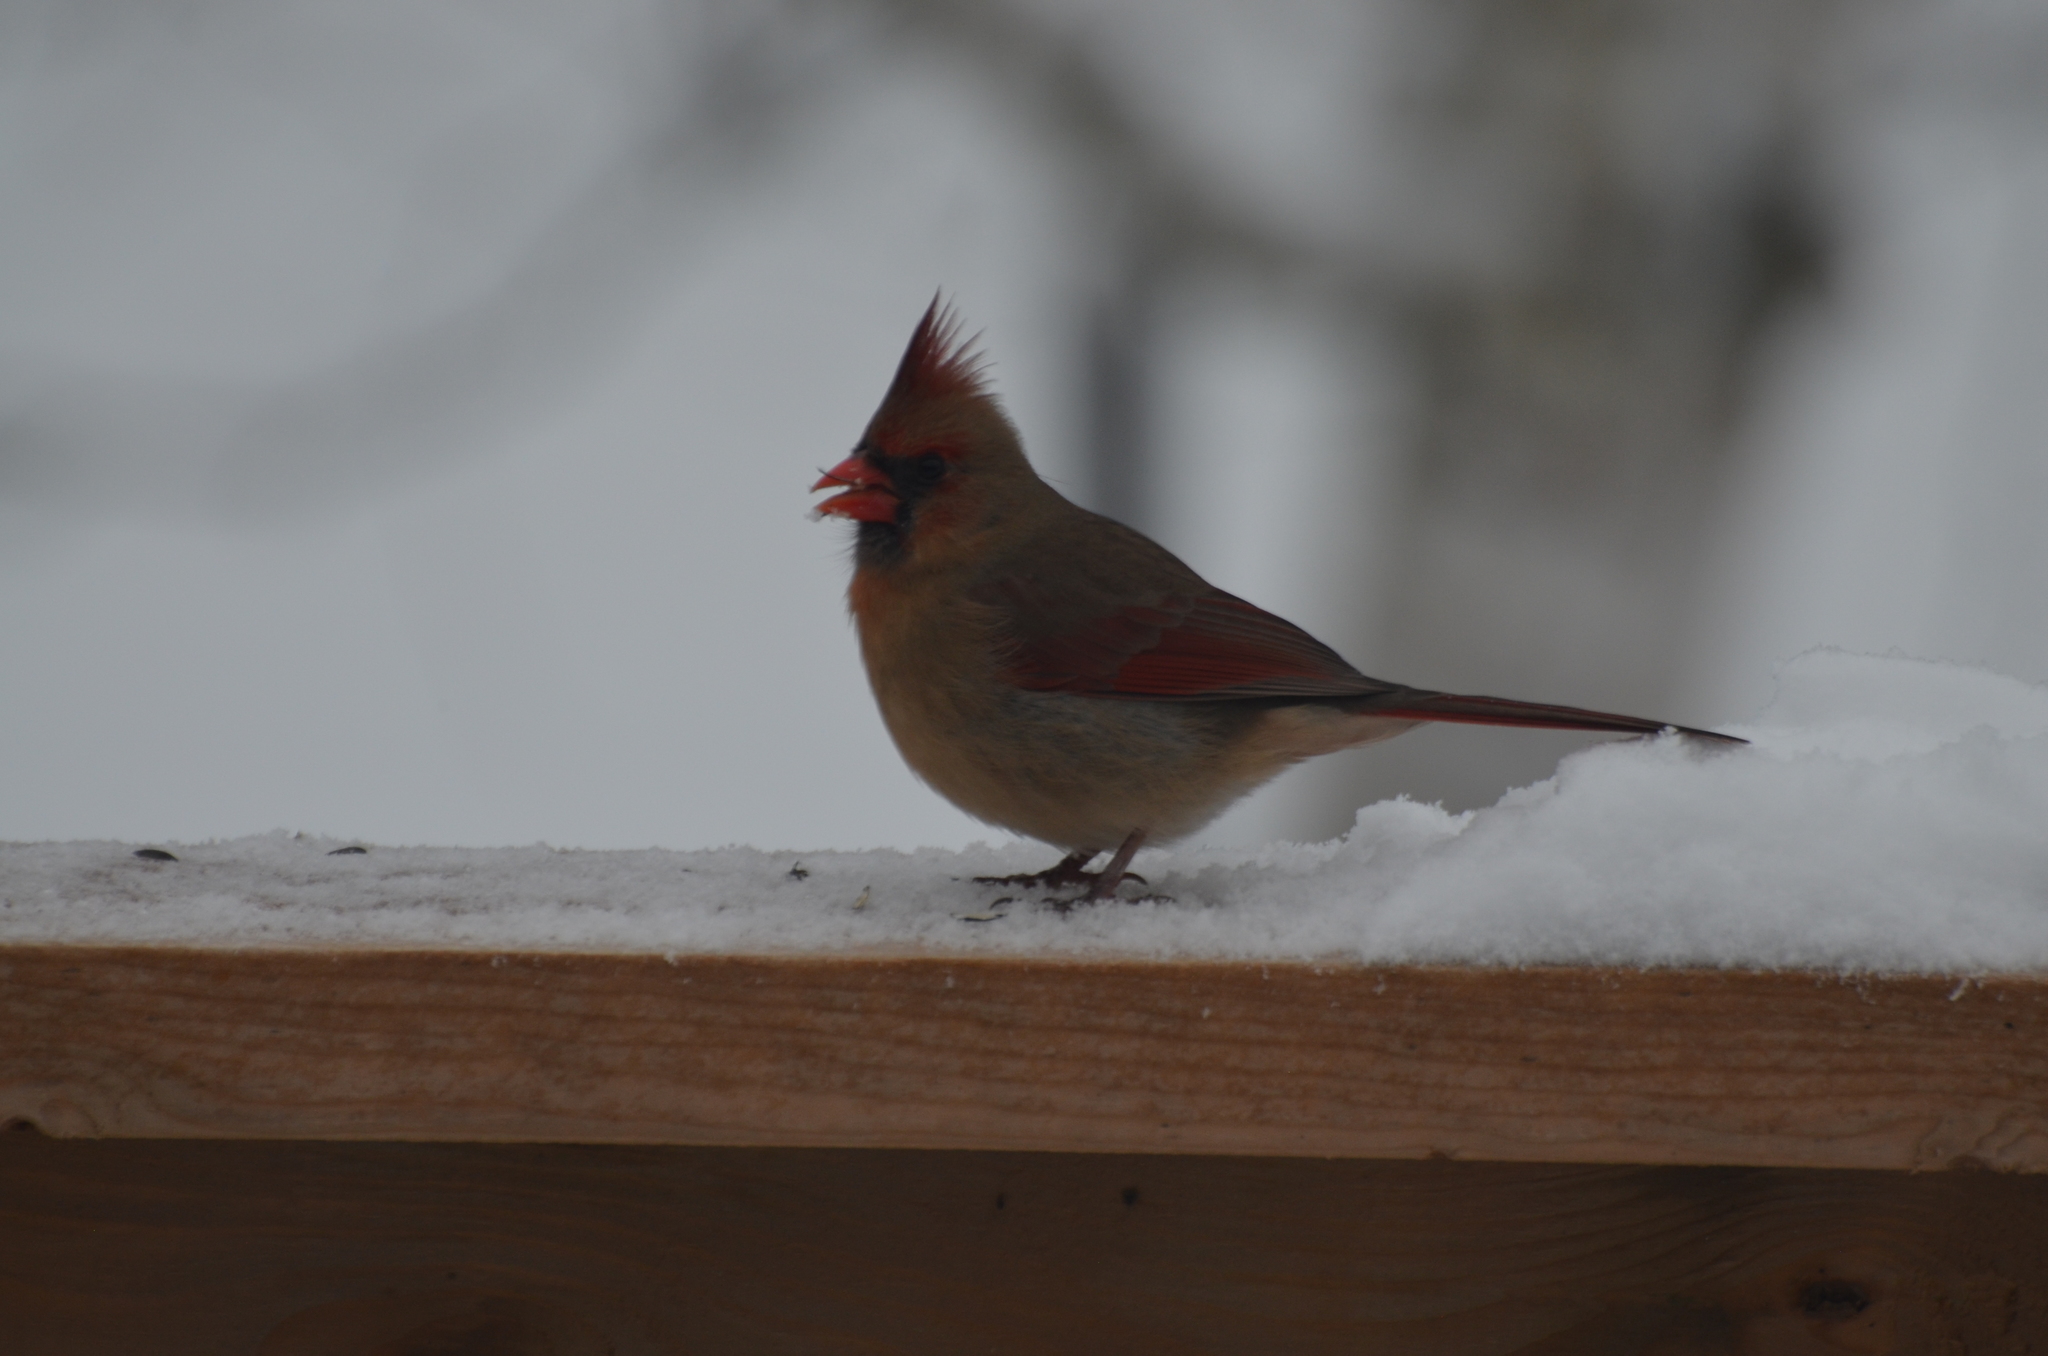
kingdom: Animalia
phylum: Chordata
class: Aves
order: Passeriformes
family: Cardinalidae
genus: Cardinalis
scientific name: Cardinalis cardinalis
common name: Northern cardinal
